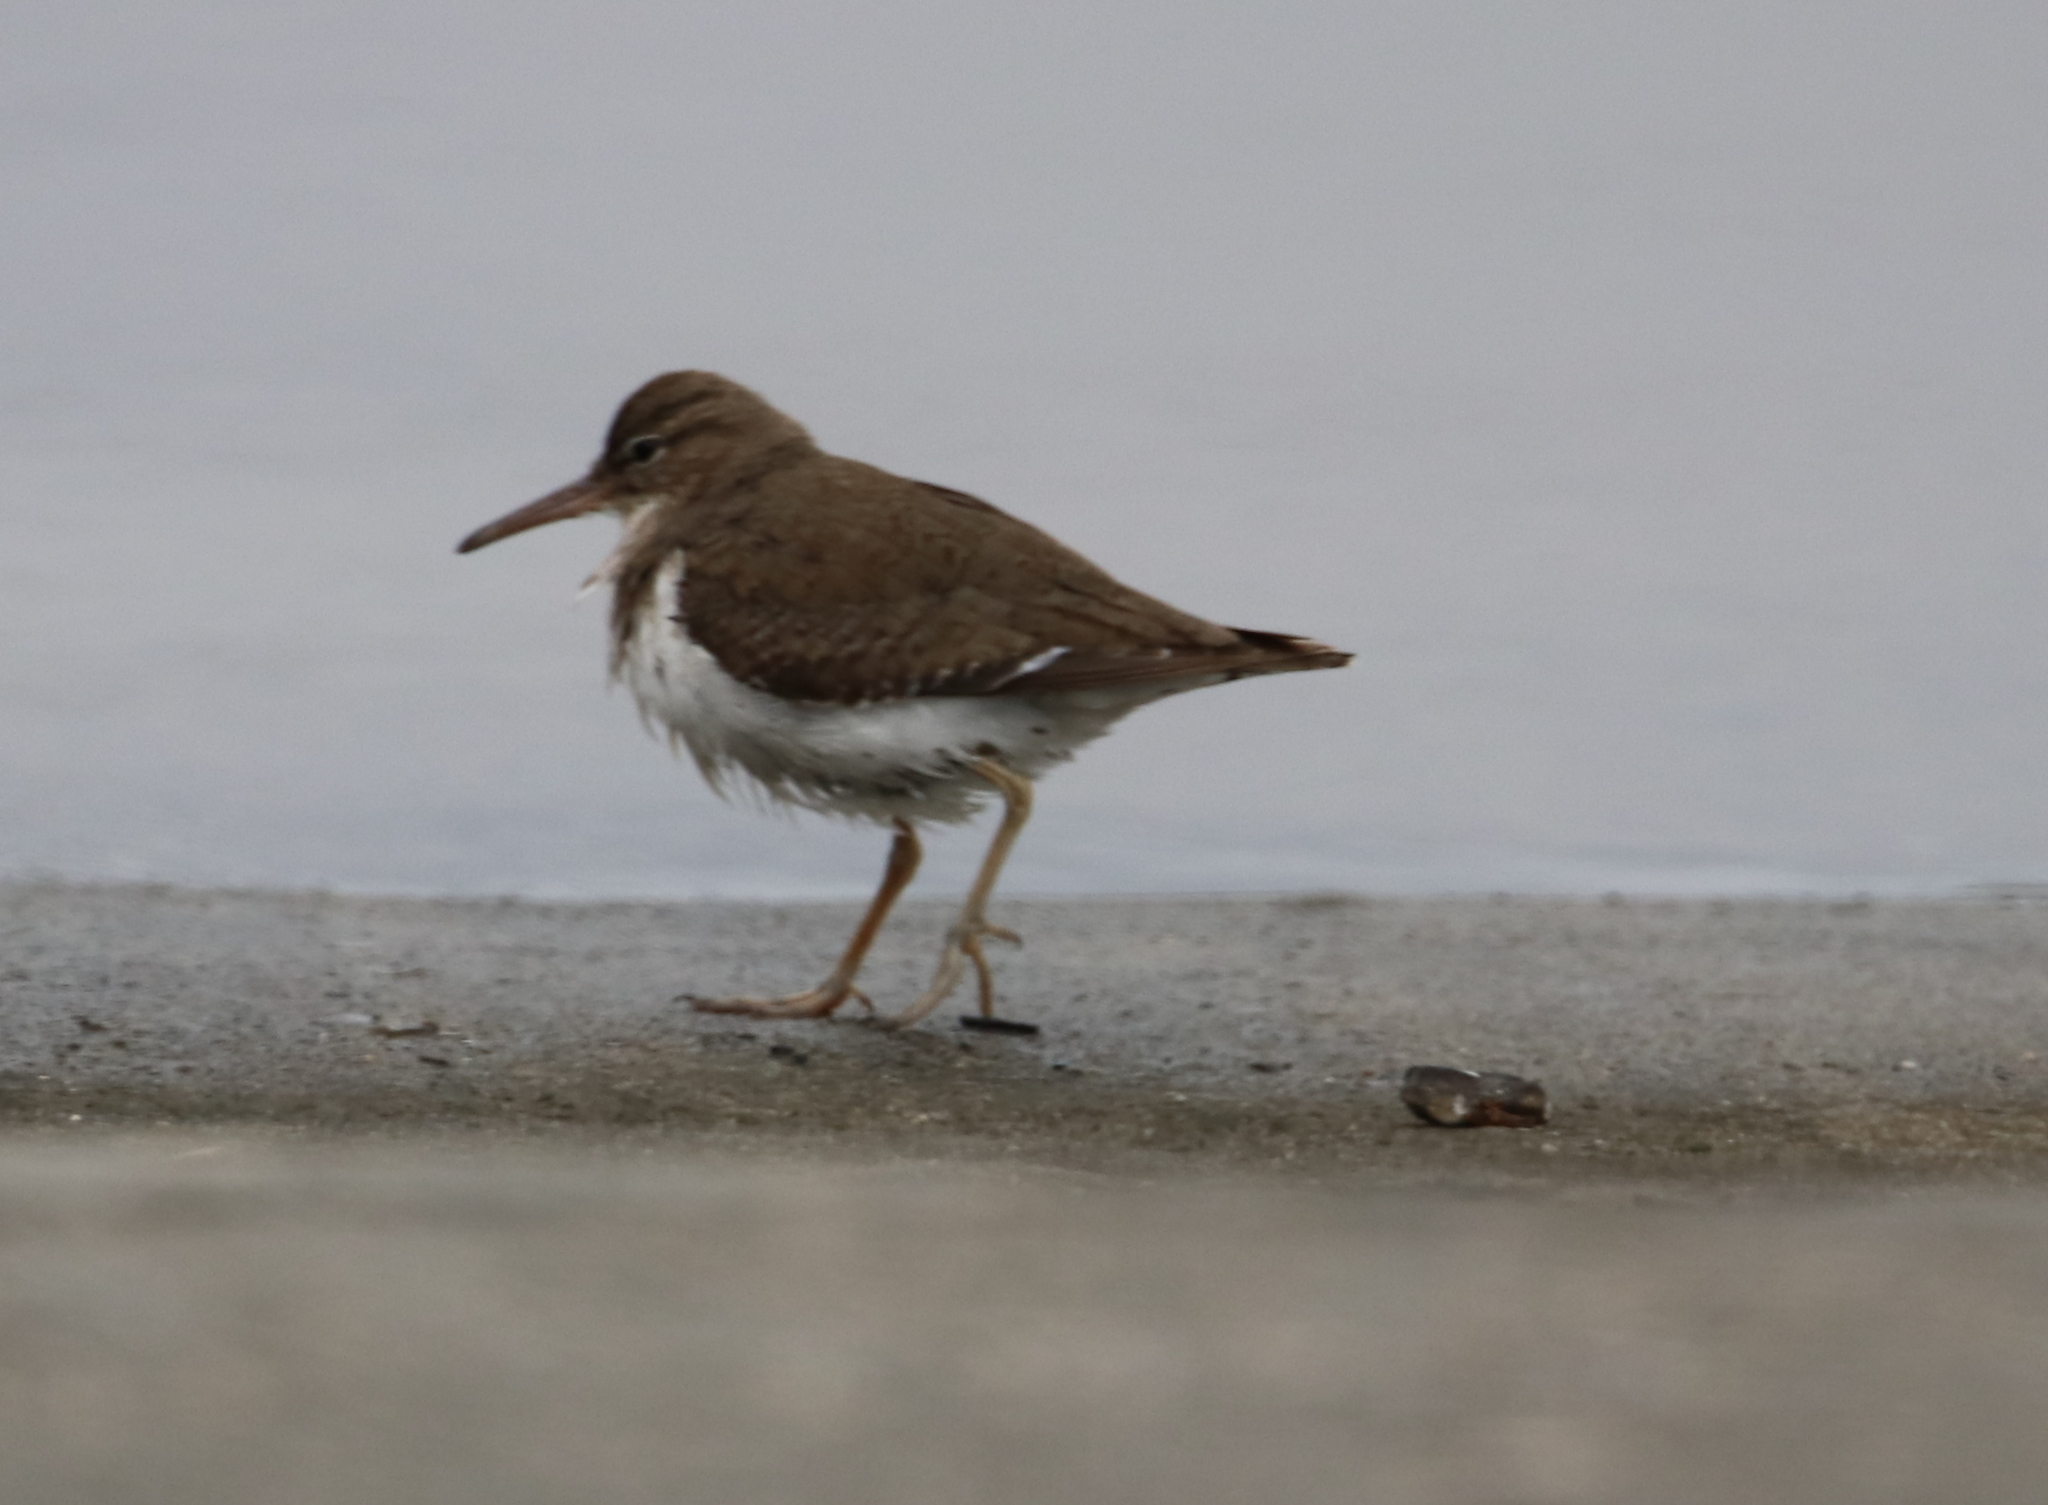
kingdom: Animalia
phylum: Chordata
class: Aves
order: Charadriiformes
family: Scolopacidae
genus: Actitis
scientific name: Actitis macularius
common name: Spotted sandpiper
